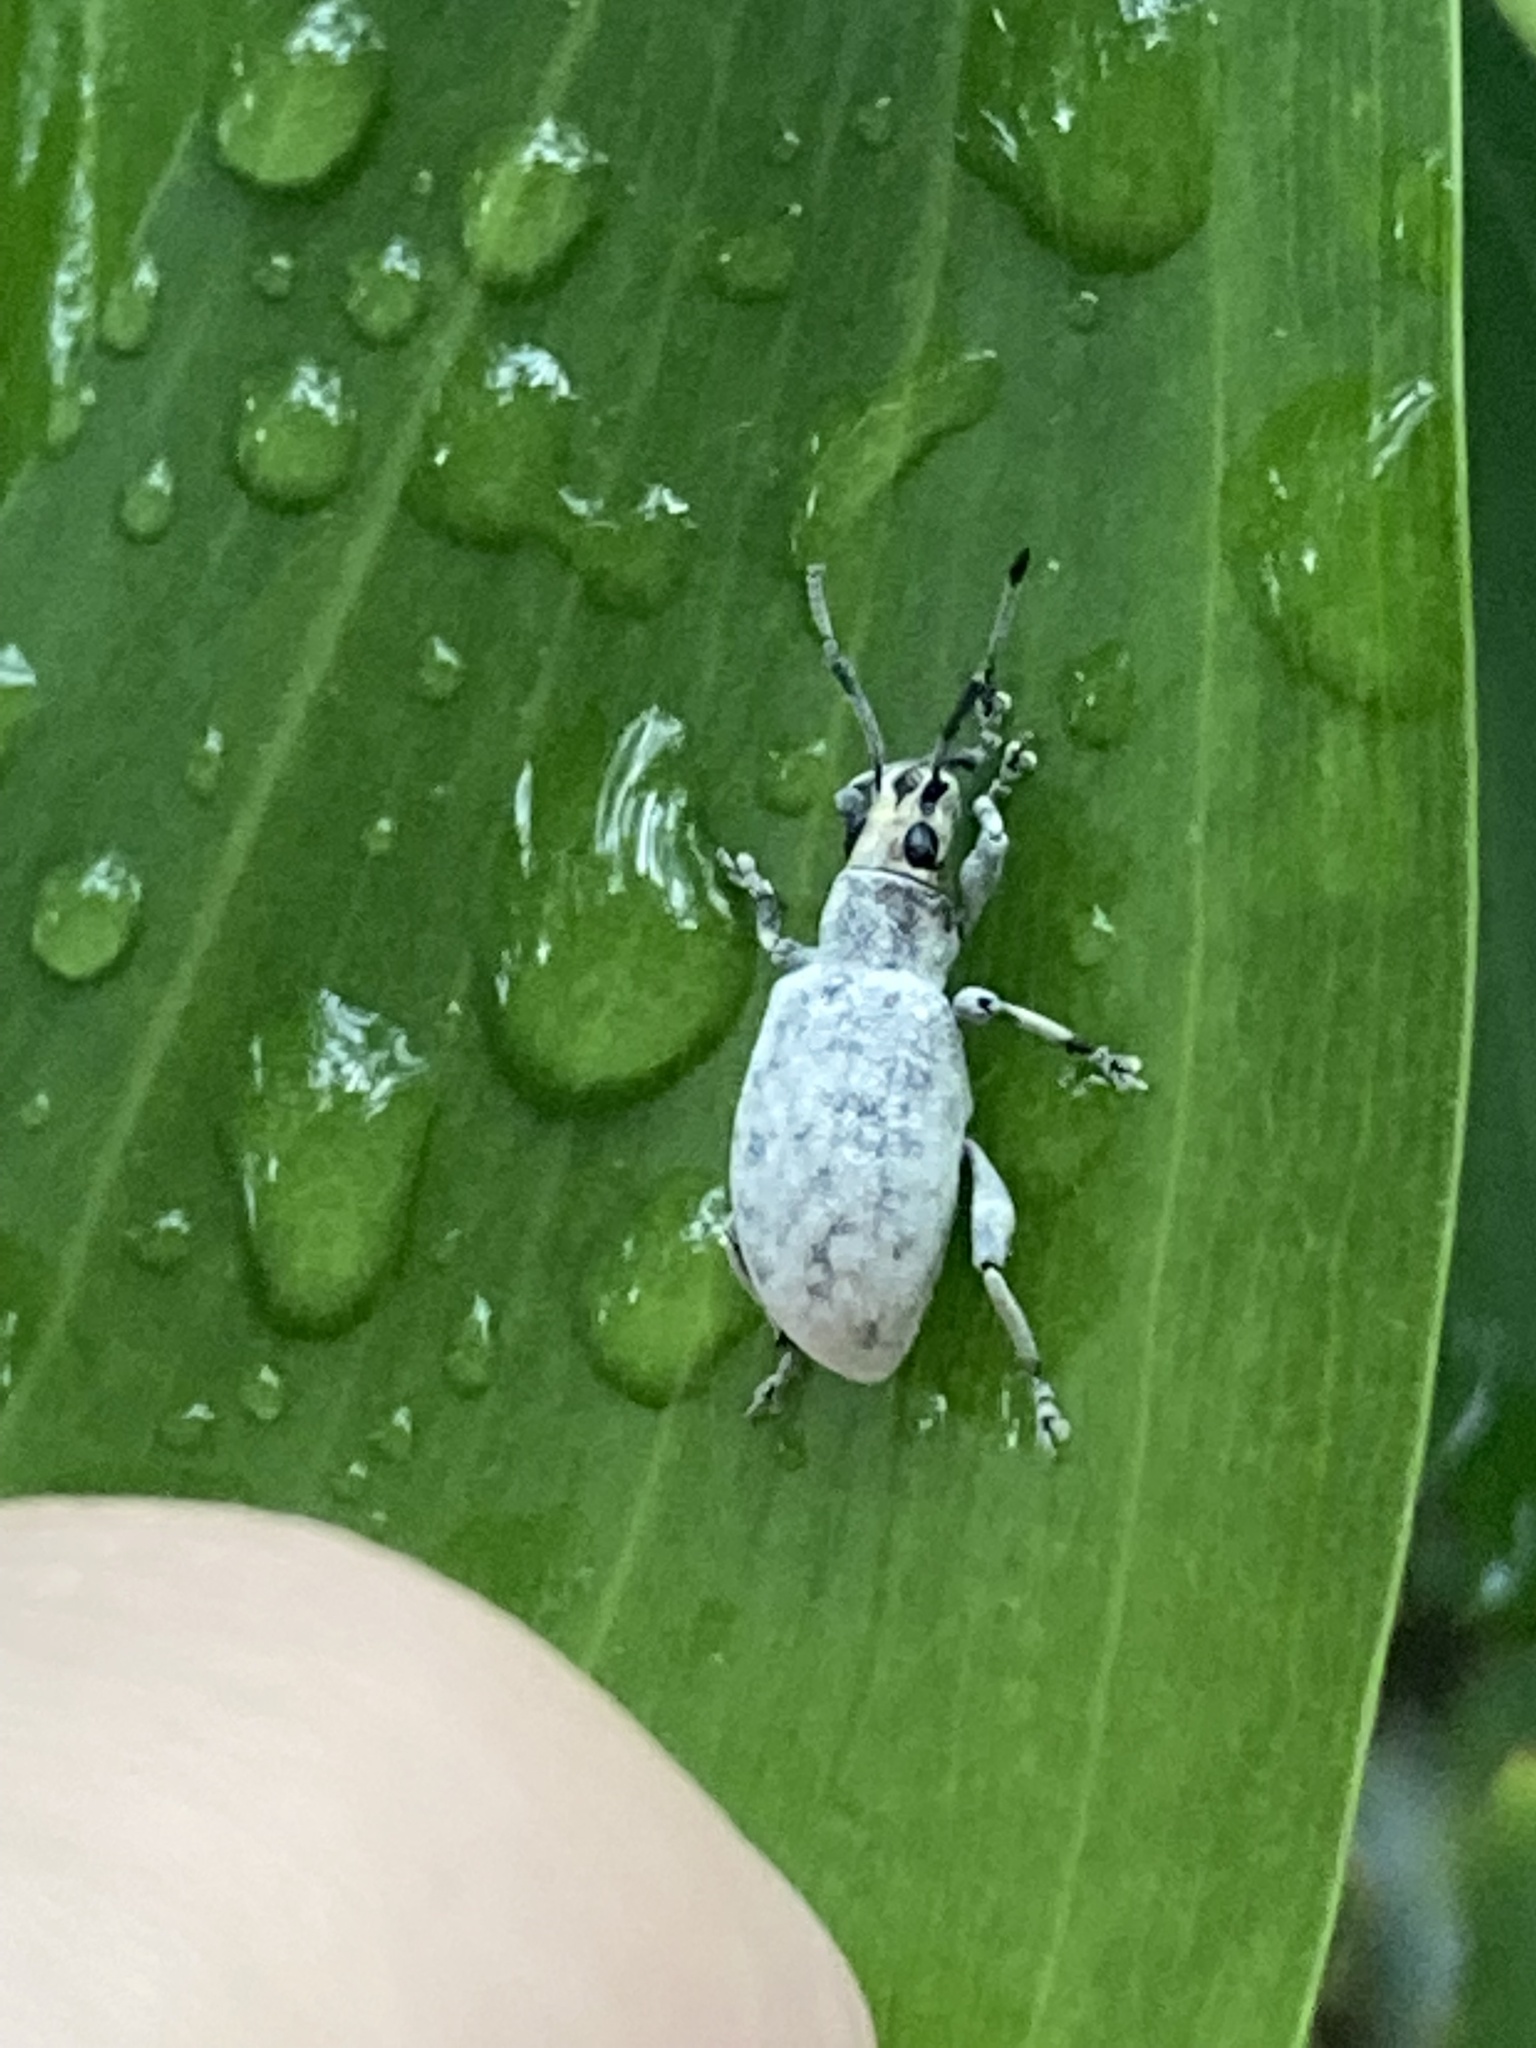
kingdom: Animalia
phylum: Arthropoda
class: Insecta
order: Coleoptera
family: Curculionidae
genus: Myllocerus
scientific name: Myllocerus undecimpustulatus
